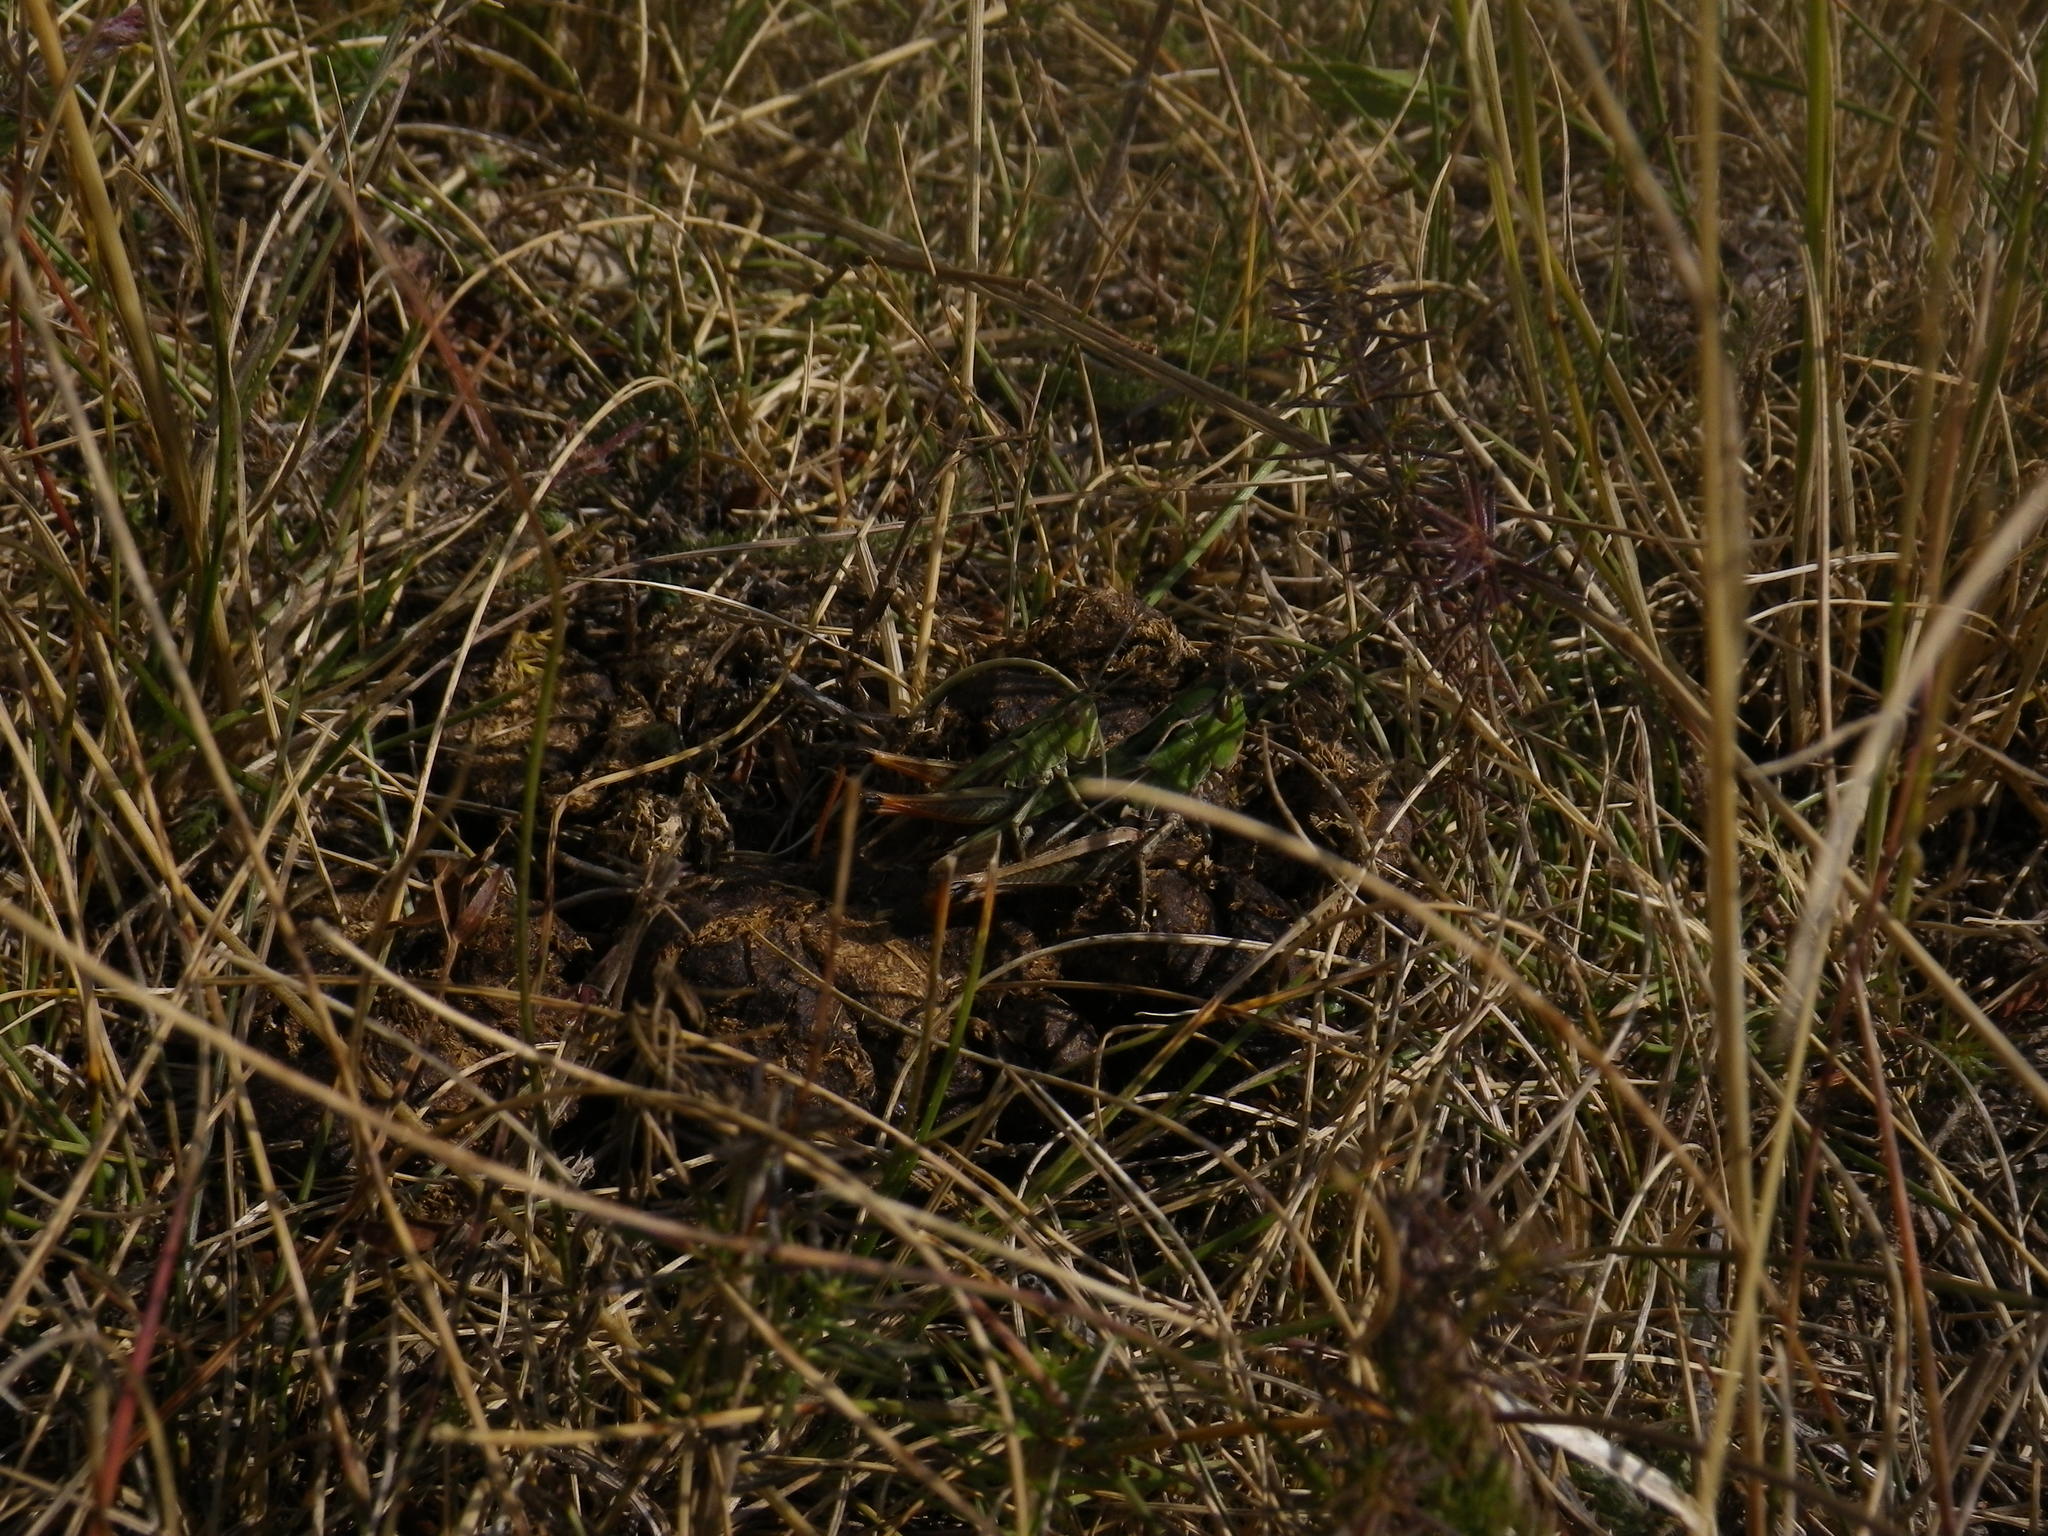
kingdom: Animalia
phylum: Arthropoda
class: Insecta
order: Orthoptera
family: Acrididae
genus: Stenobothrus
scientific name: Stenobothrus lineatus
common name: Stripe-winged grasshopper
